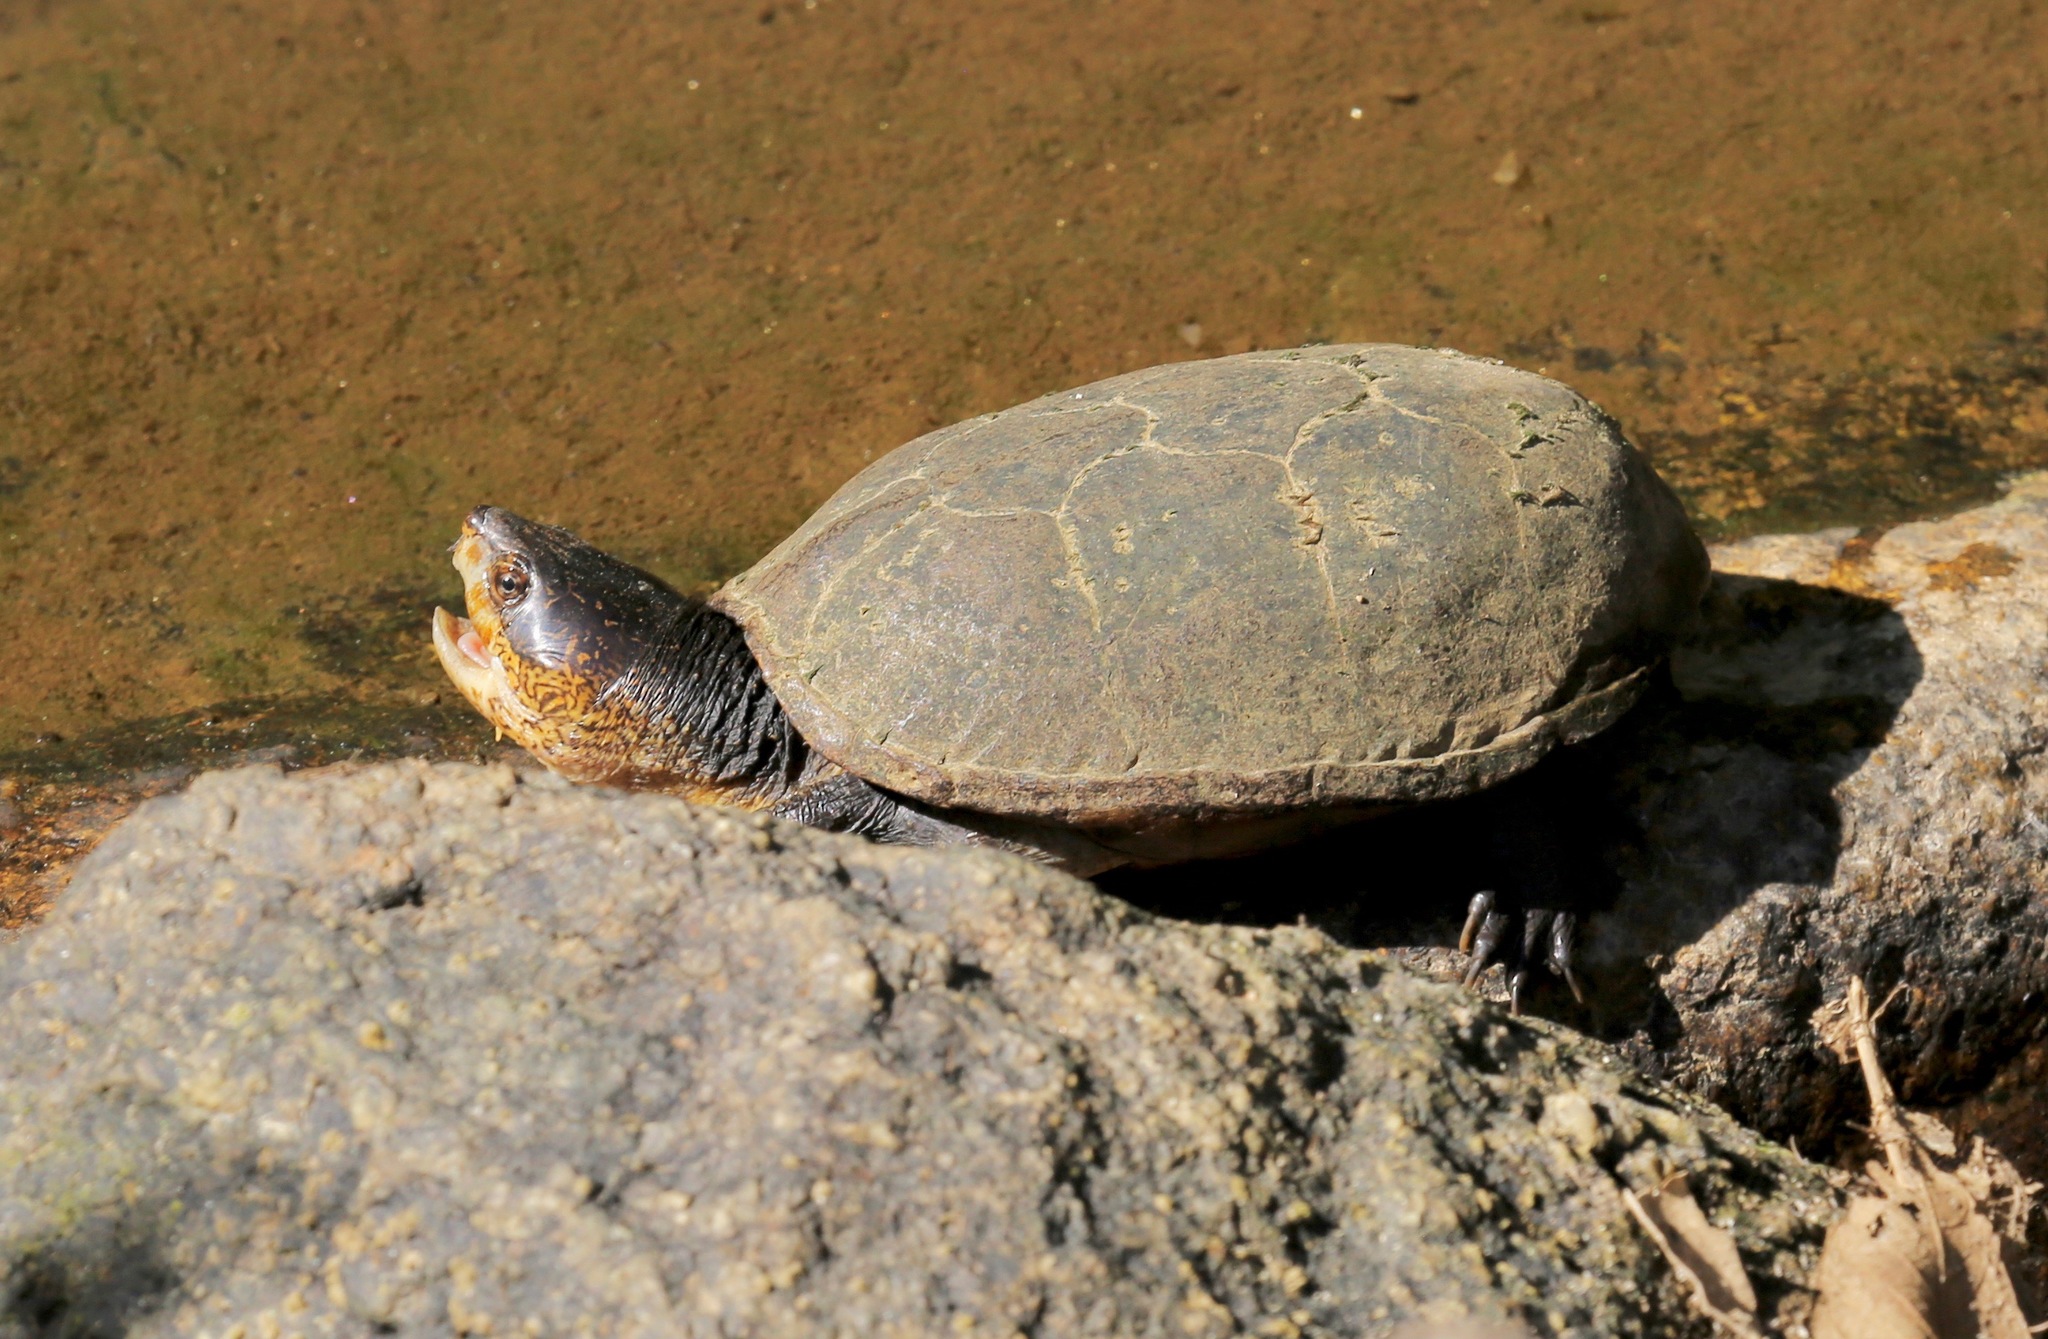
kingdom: Animalia
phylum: Chordata
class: Testudines
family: Kinosternidae
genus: Kinosternon
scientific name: Kinosternon chimalhuaca
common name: Jalisco mud turtle
